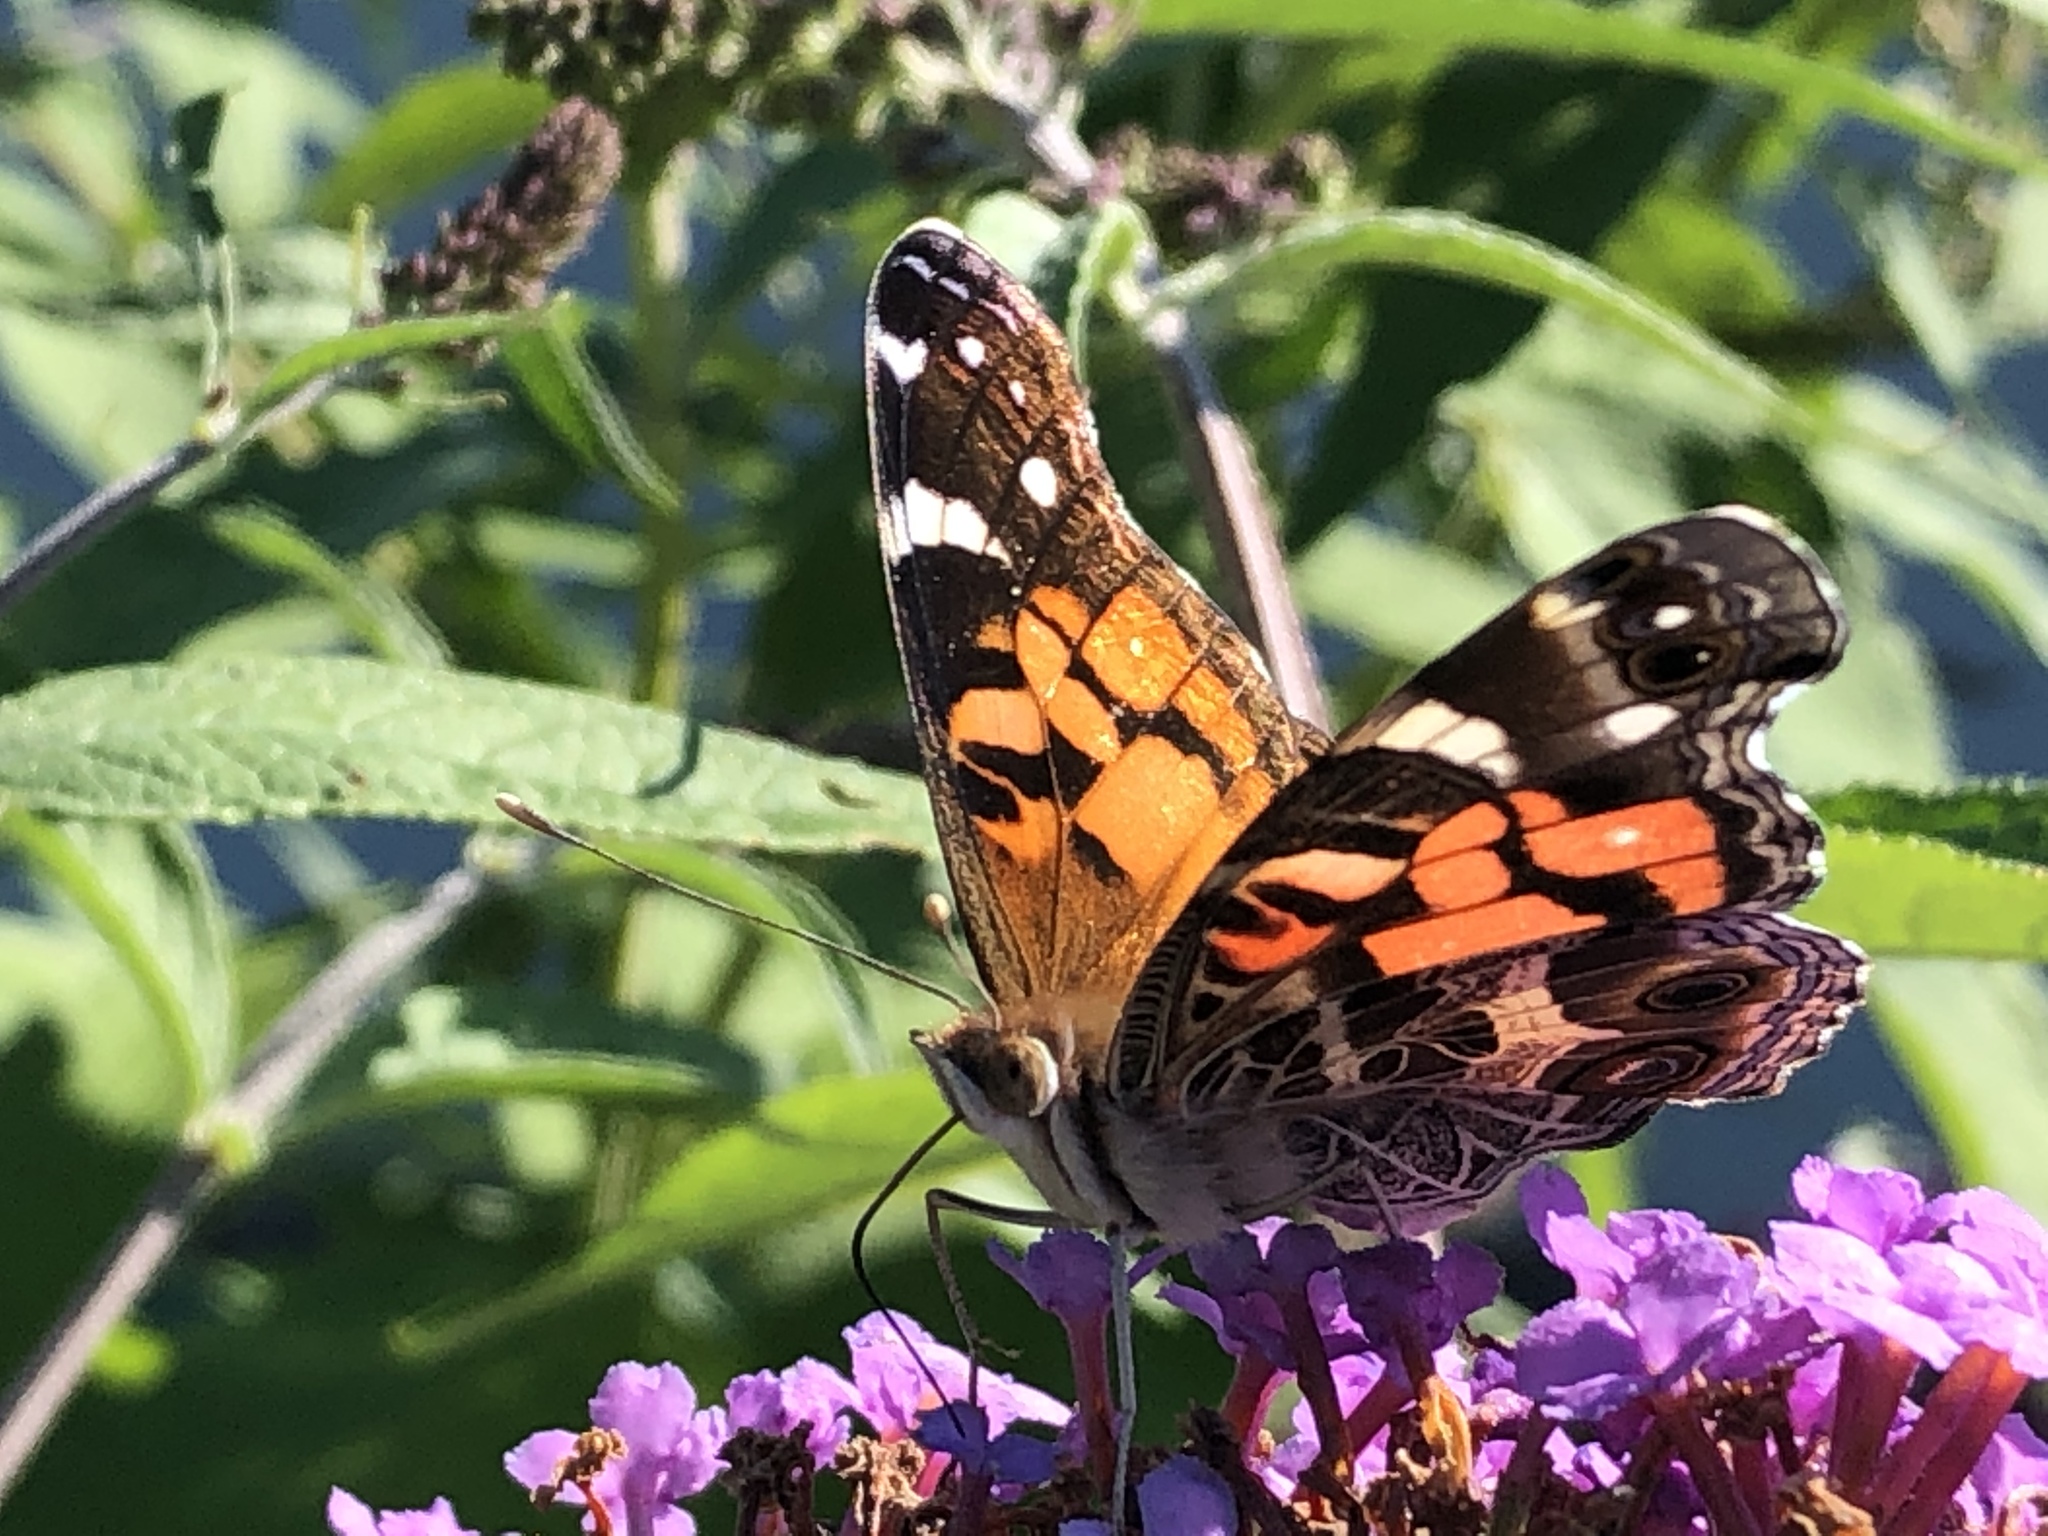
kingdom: Animalia
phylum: Arthropoda
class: Insecta
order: Lepidoptera
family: Nymphalidae
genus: Vanessa
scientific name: Vanessa virginiensis
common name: American lady
